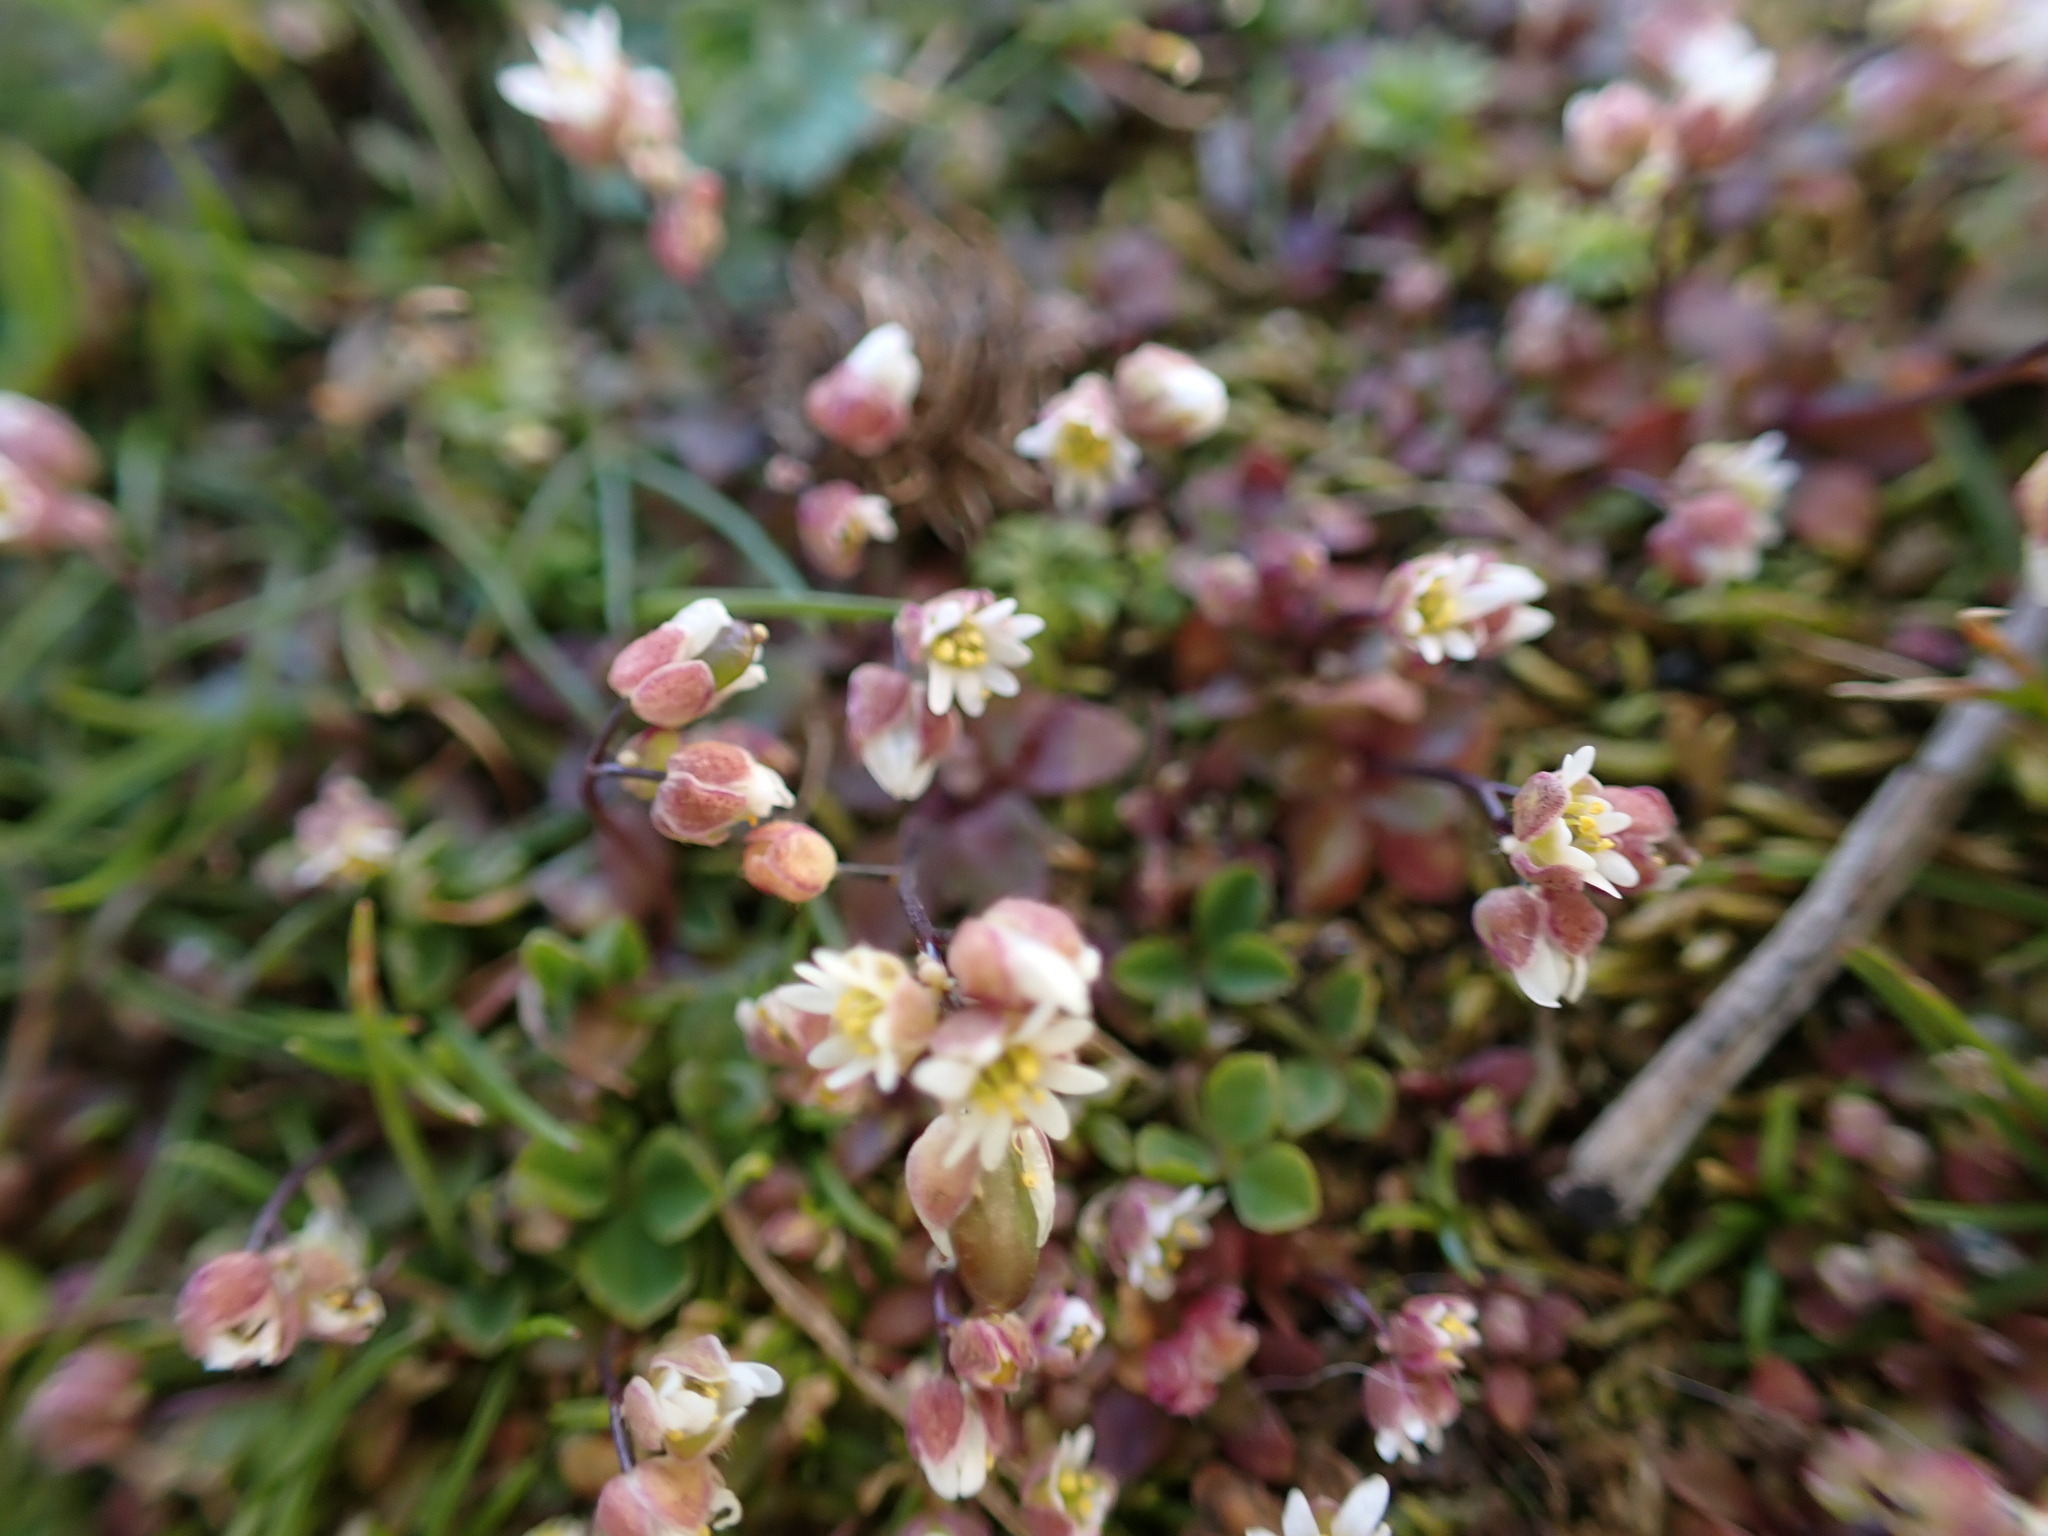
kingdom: Plantae
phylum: Tracheophyta
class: Magnoliopsida
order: Brassicales
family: Brassicaceae
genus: Draba
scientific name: Draba verna
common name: Spring draba
